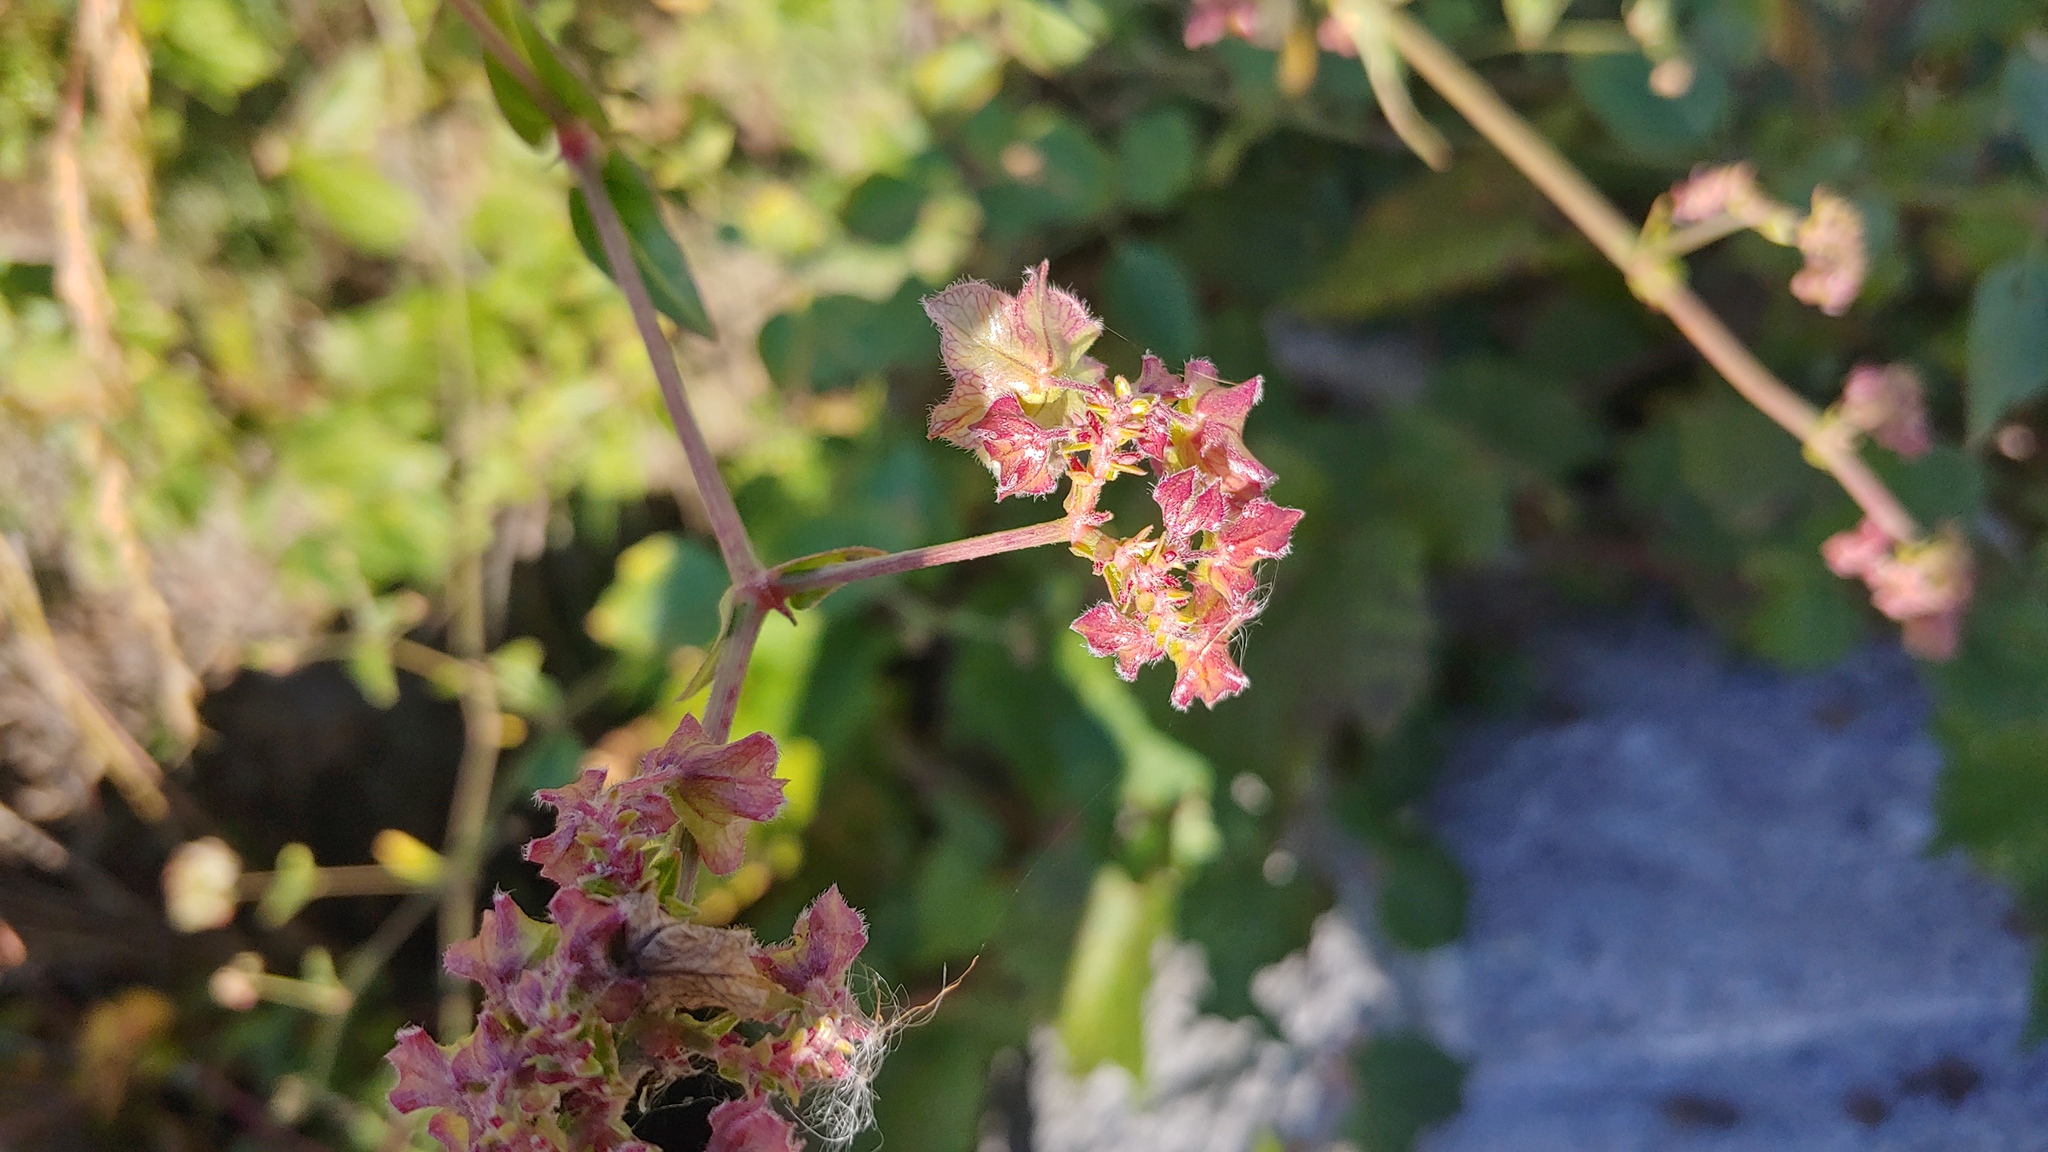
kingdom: Plantae
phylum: Tracheophyta
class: Magnoliopsida
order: Caryophyllales
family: Nyctaginaceae
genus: Mirabilis
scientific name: Mirabilis nyctaginea
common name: Umbrella wort
